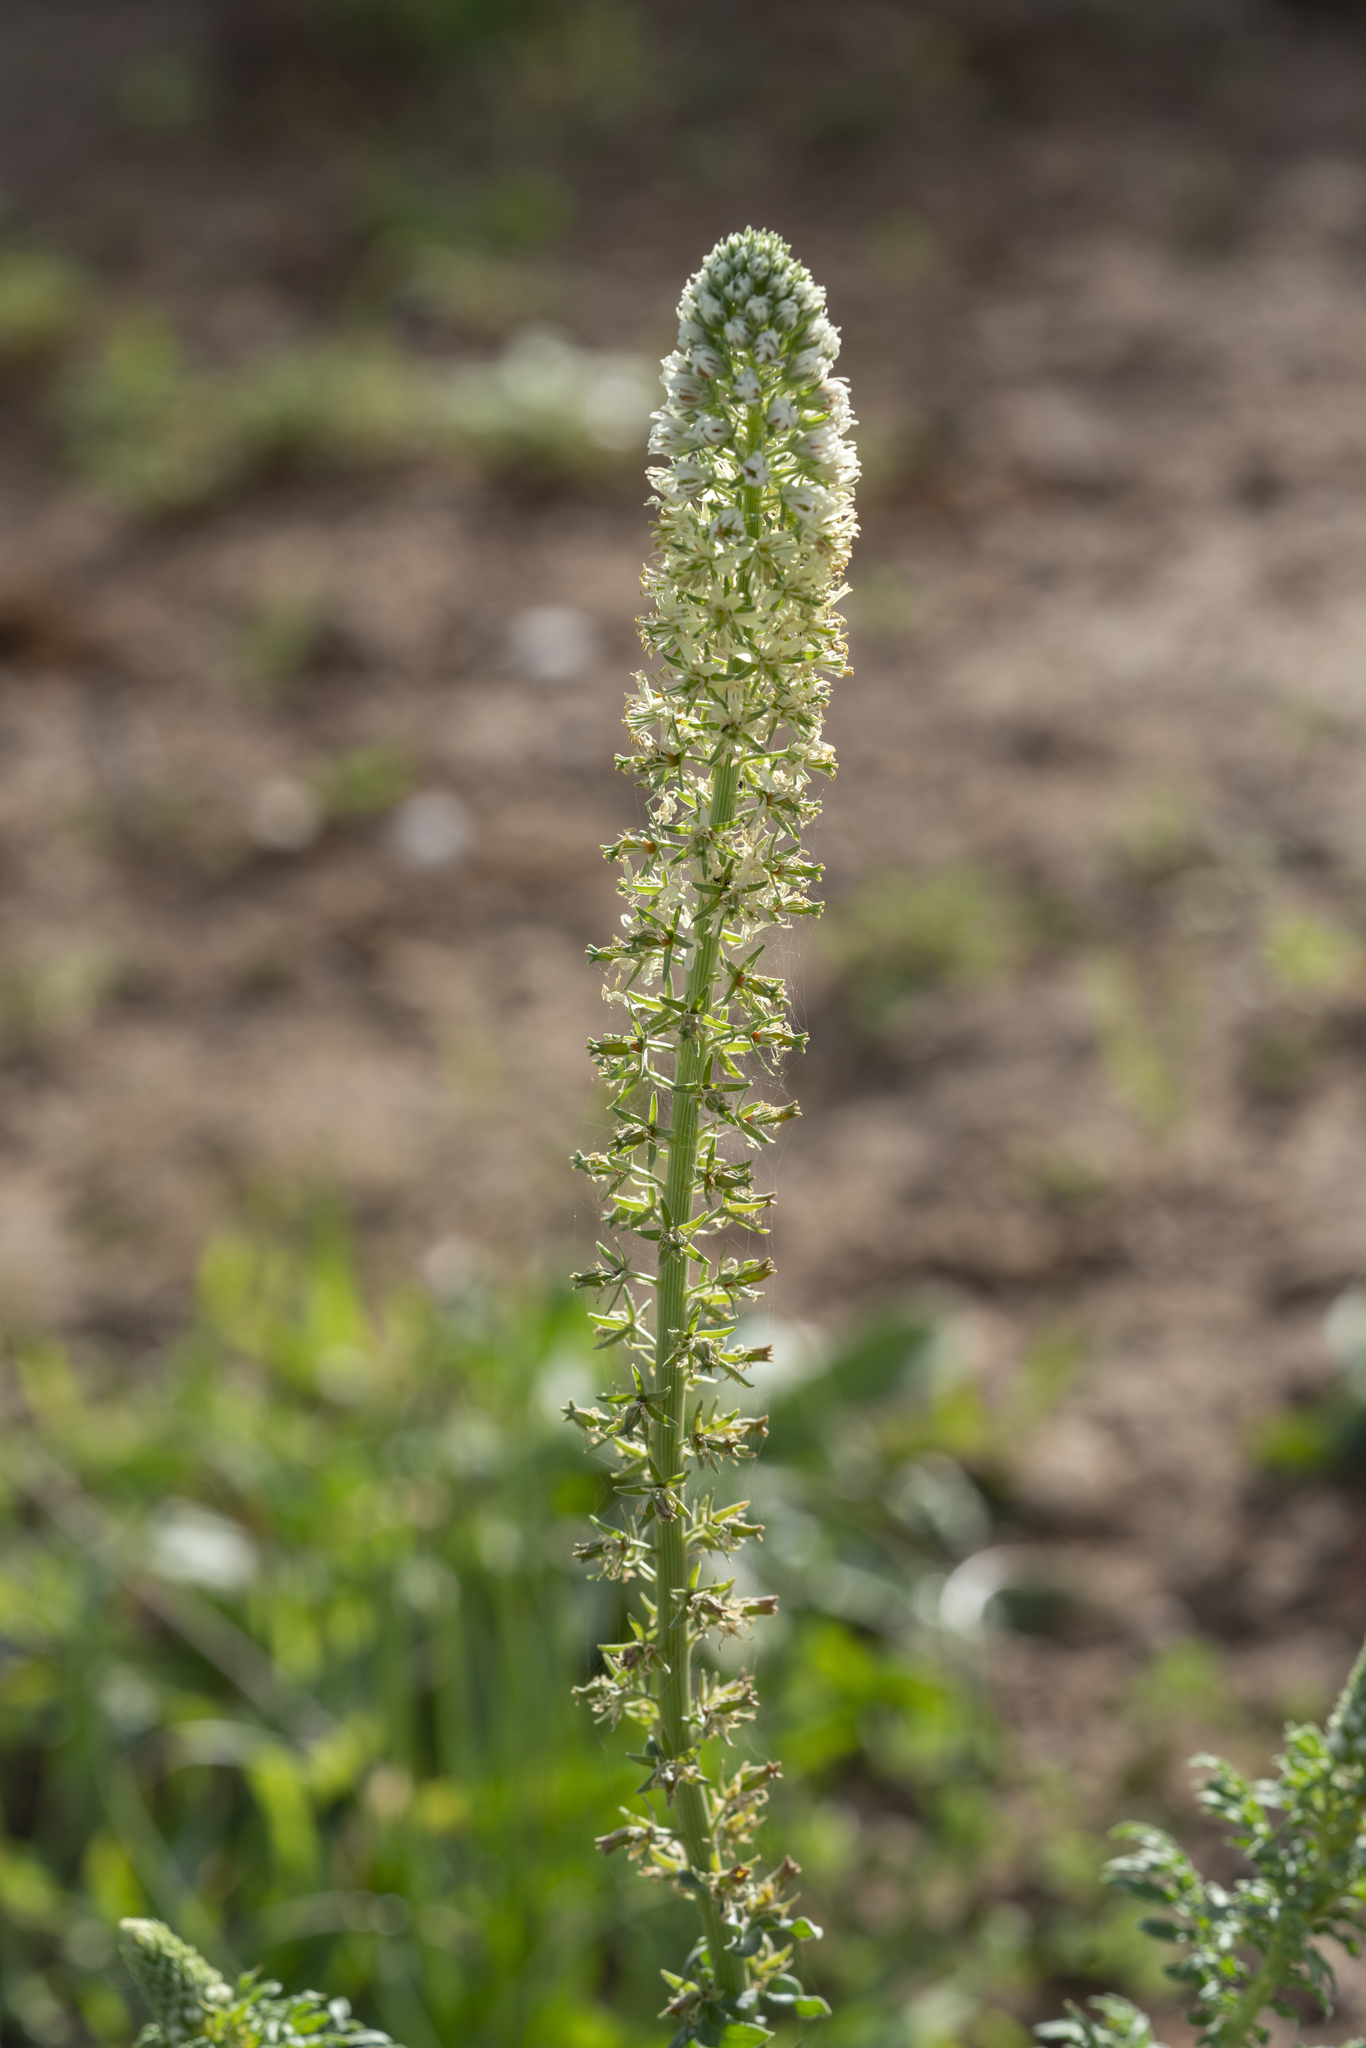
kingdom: Plantae
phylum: Tracheophyta
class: Magnoliopsida
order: Brassicales
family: Resedaceae
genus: Reseda
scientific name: Reseda alba
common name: White mignonette
